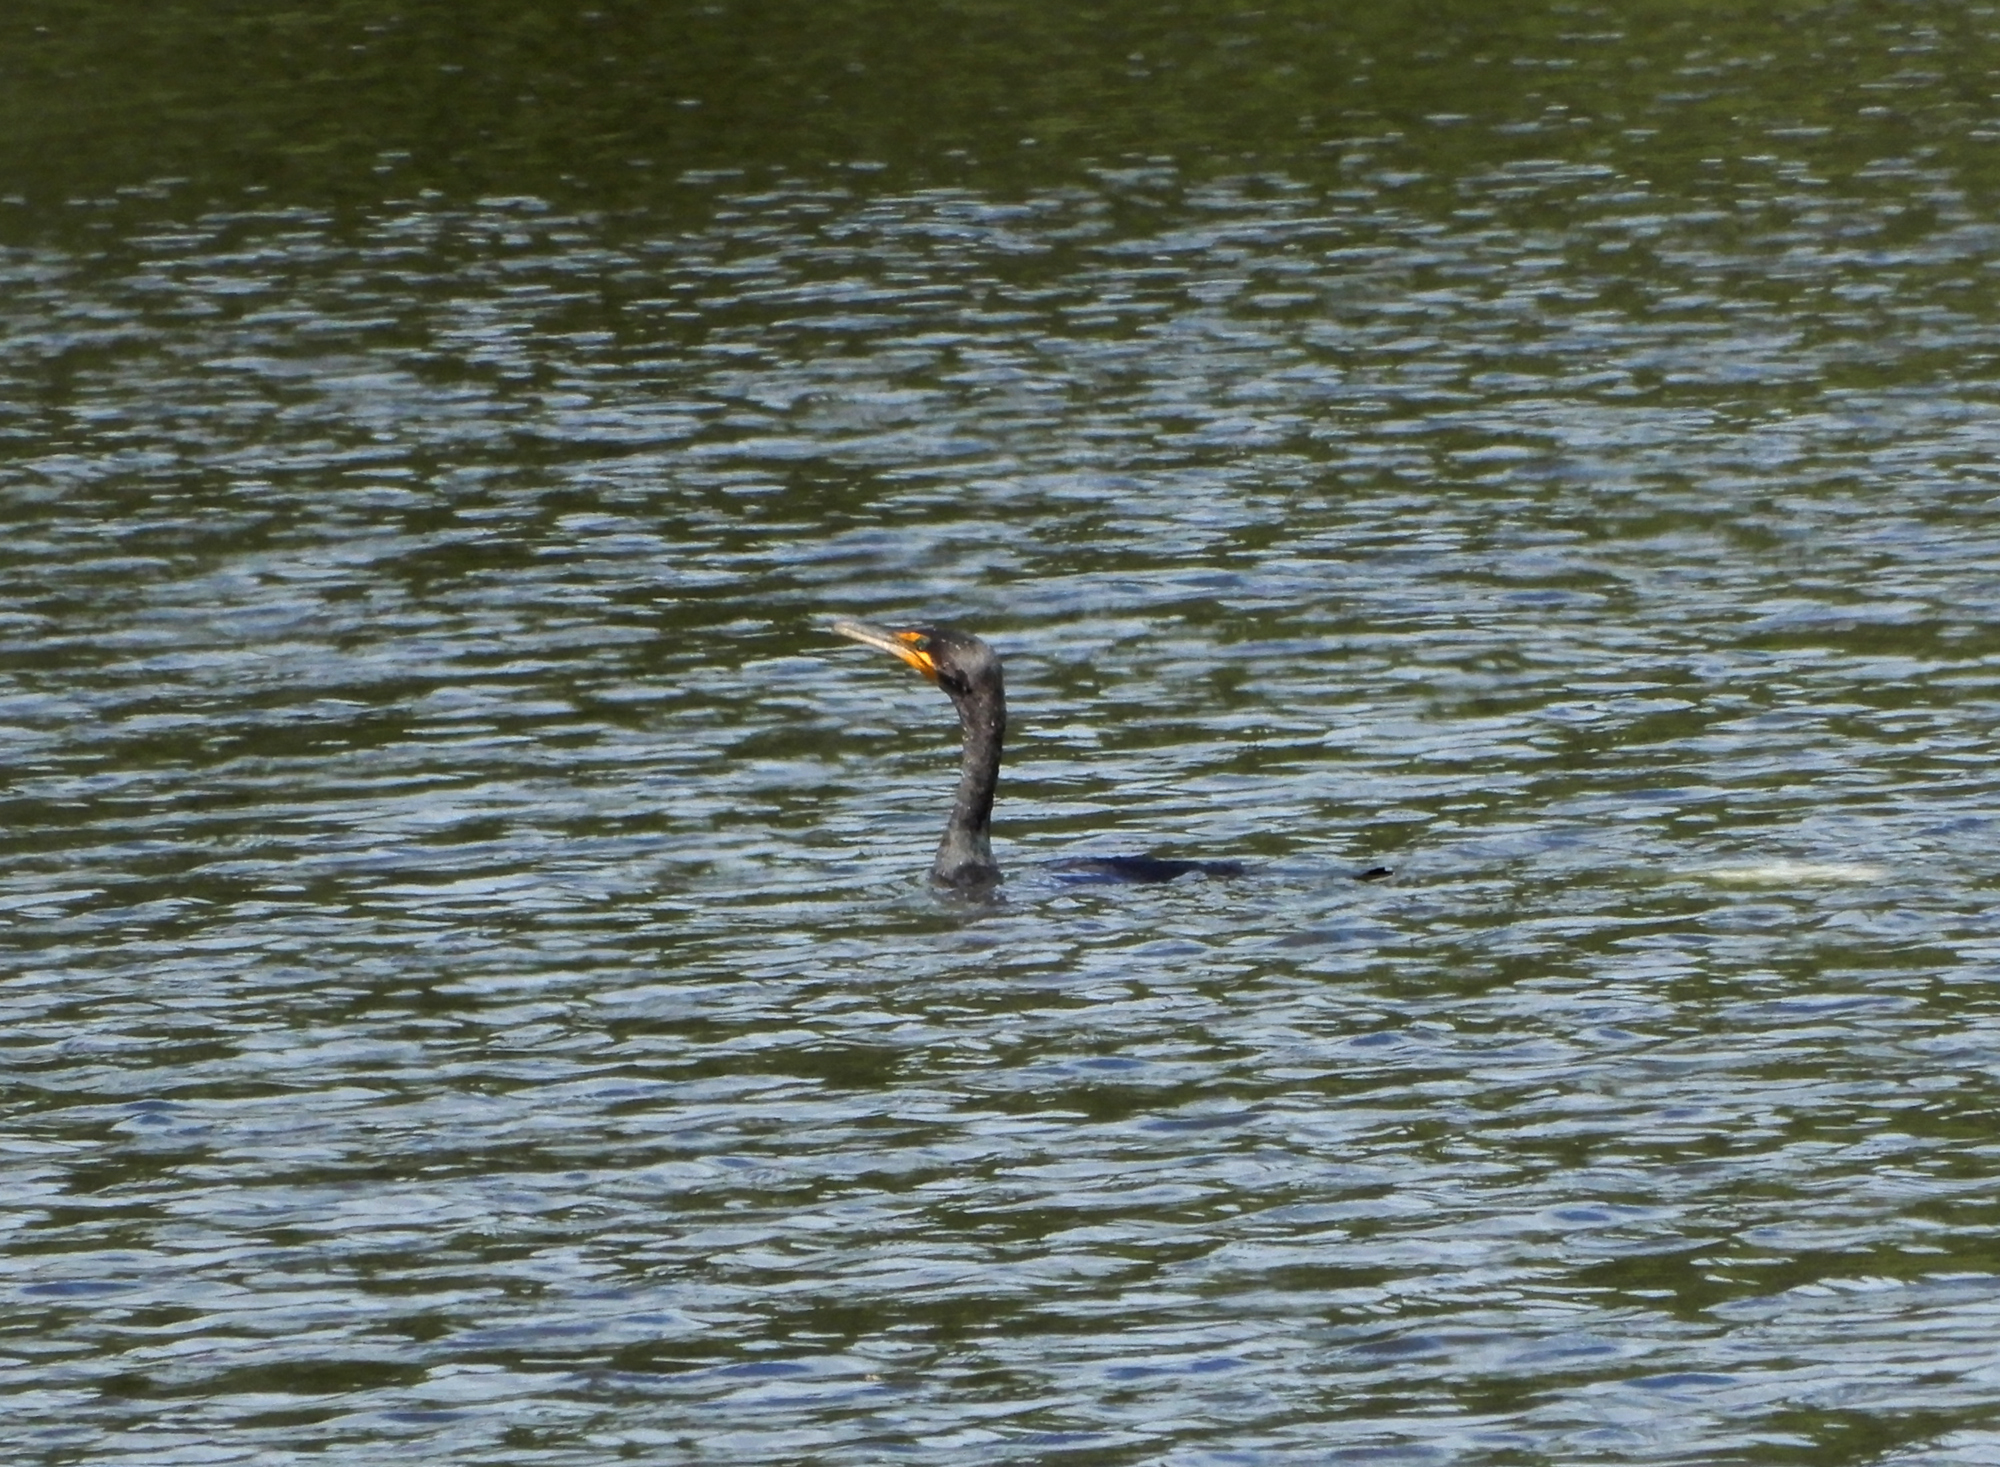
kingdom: Animalia
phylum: Chordata
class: Aves
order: Suliformes
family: Phalacrocoracidae
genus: Phalacrocorax
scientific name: Phalacrocorax auritus
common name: Double-crested cormorant
